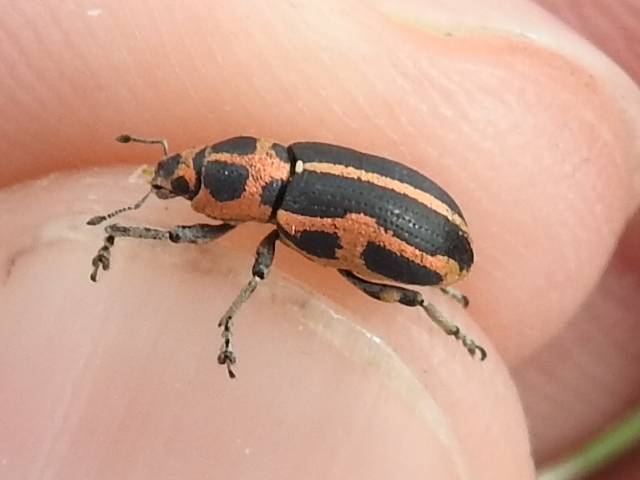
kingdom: Animalia
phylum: Arthropoda
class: Insecta
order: Coleoptera
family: Curculionidae
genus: Eudiagogus
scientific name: Eudiagogus pulcher
